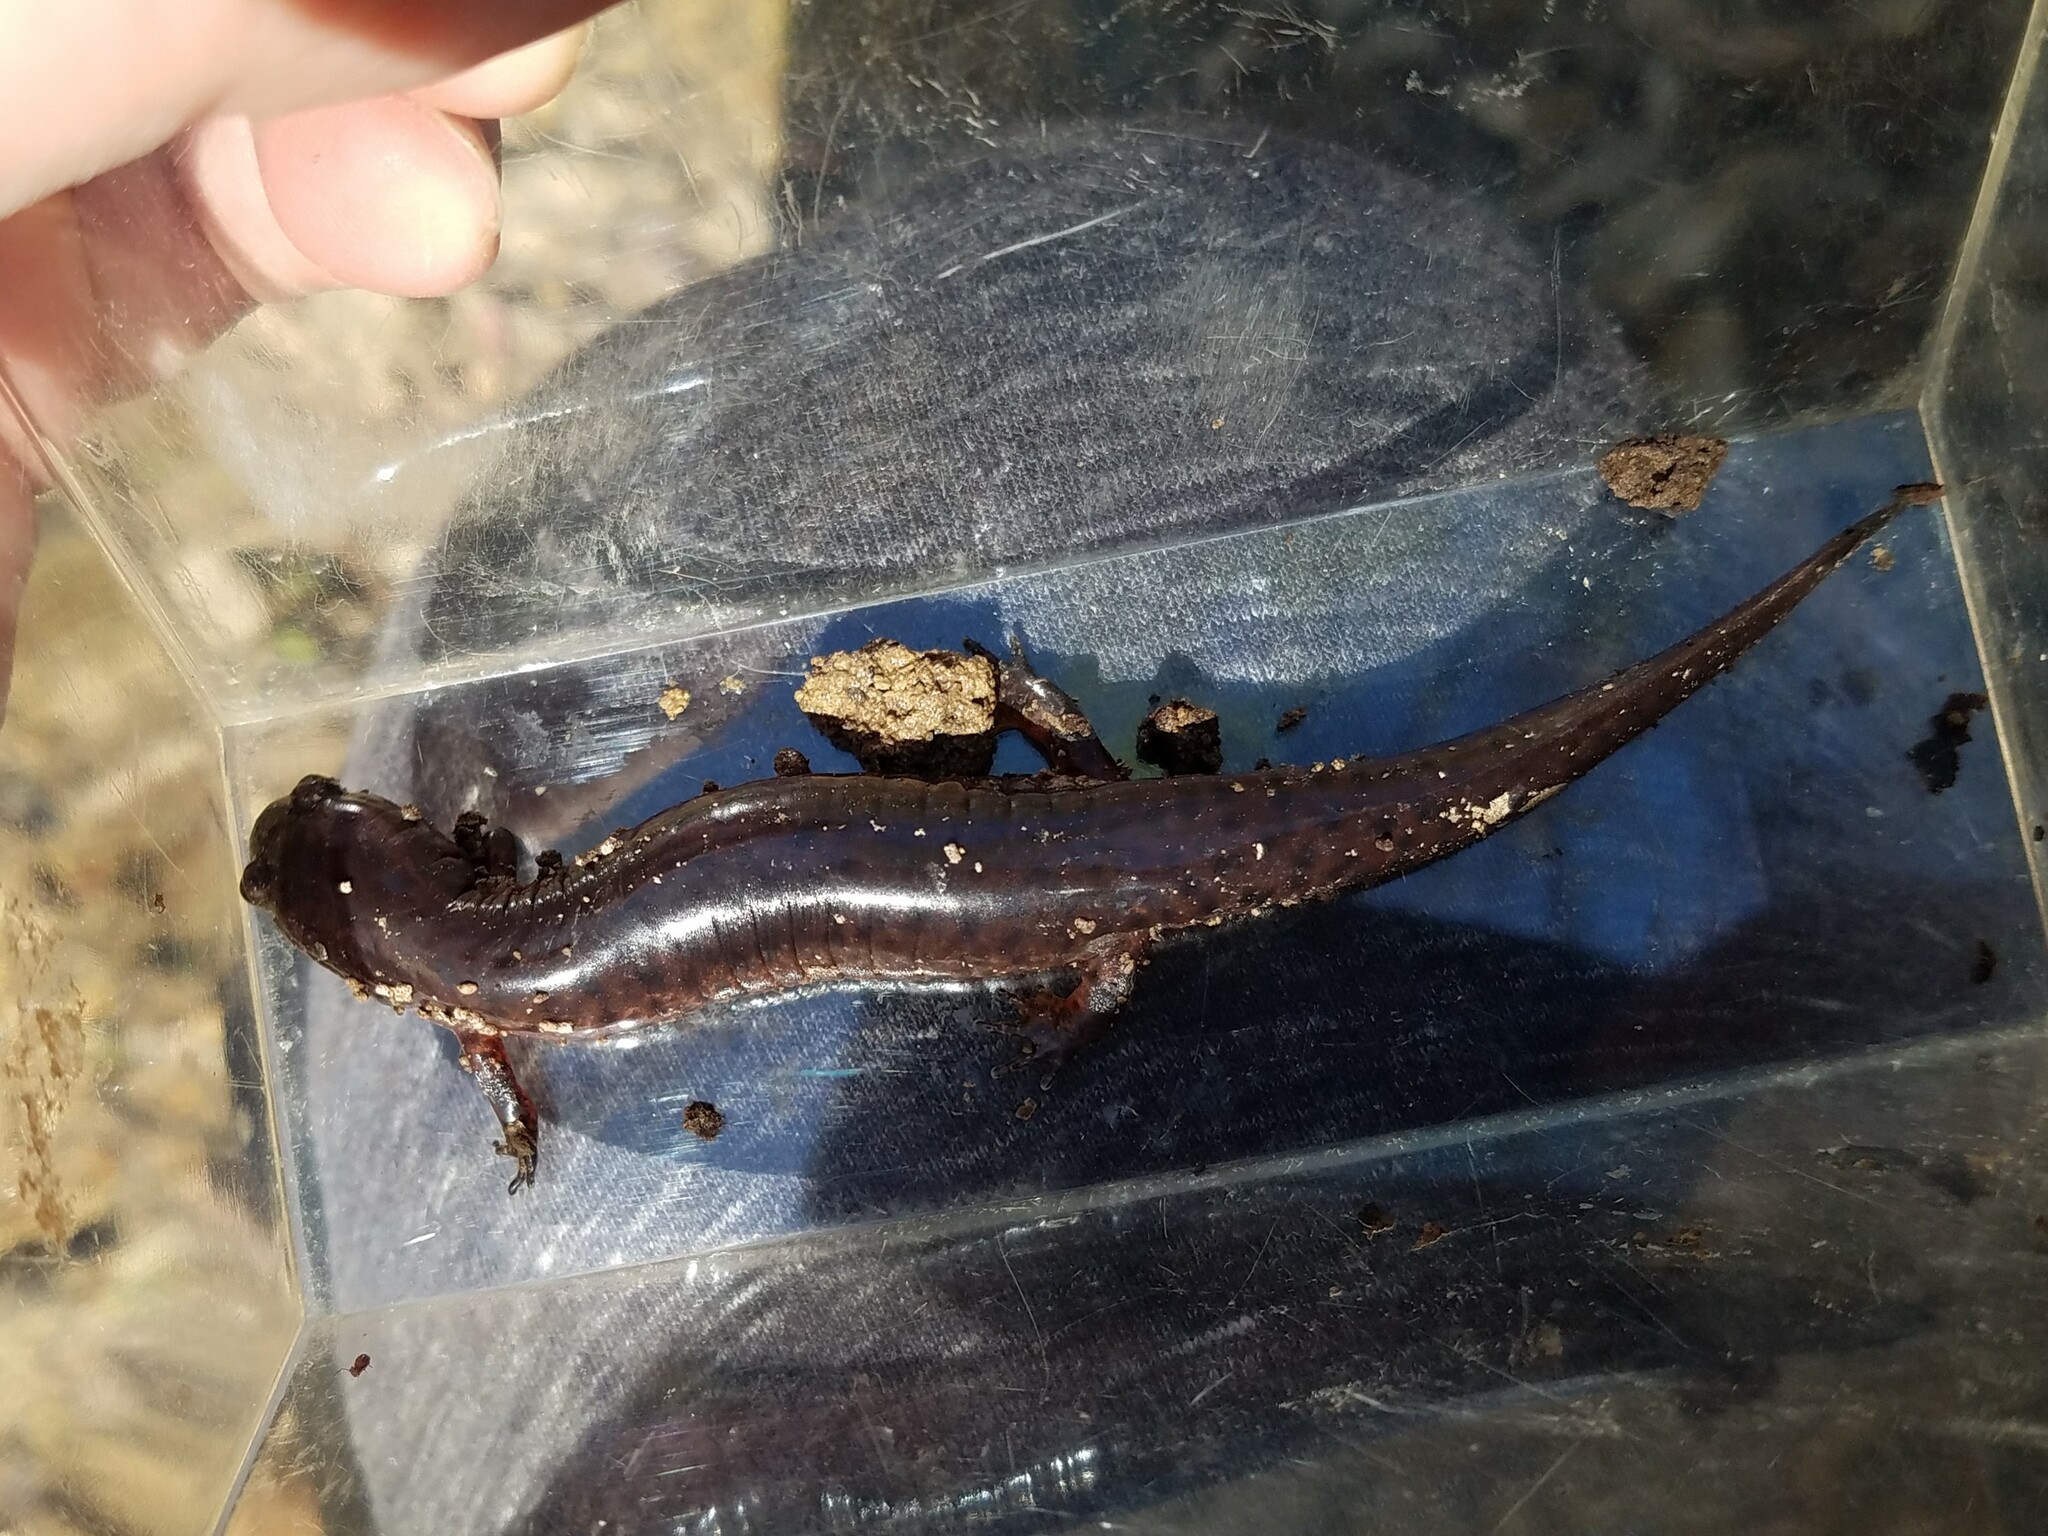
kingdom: Animalia
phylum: Chordata
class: Amphibia
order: Caudata
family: Plethodontidae
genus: Pseudotriton
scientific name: Pseudotriton ruber
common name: Red salamander
